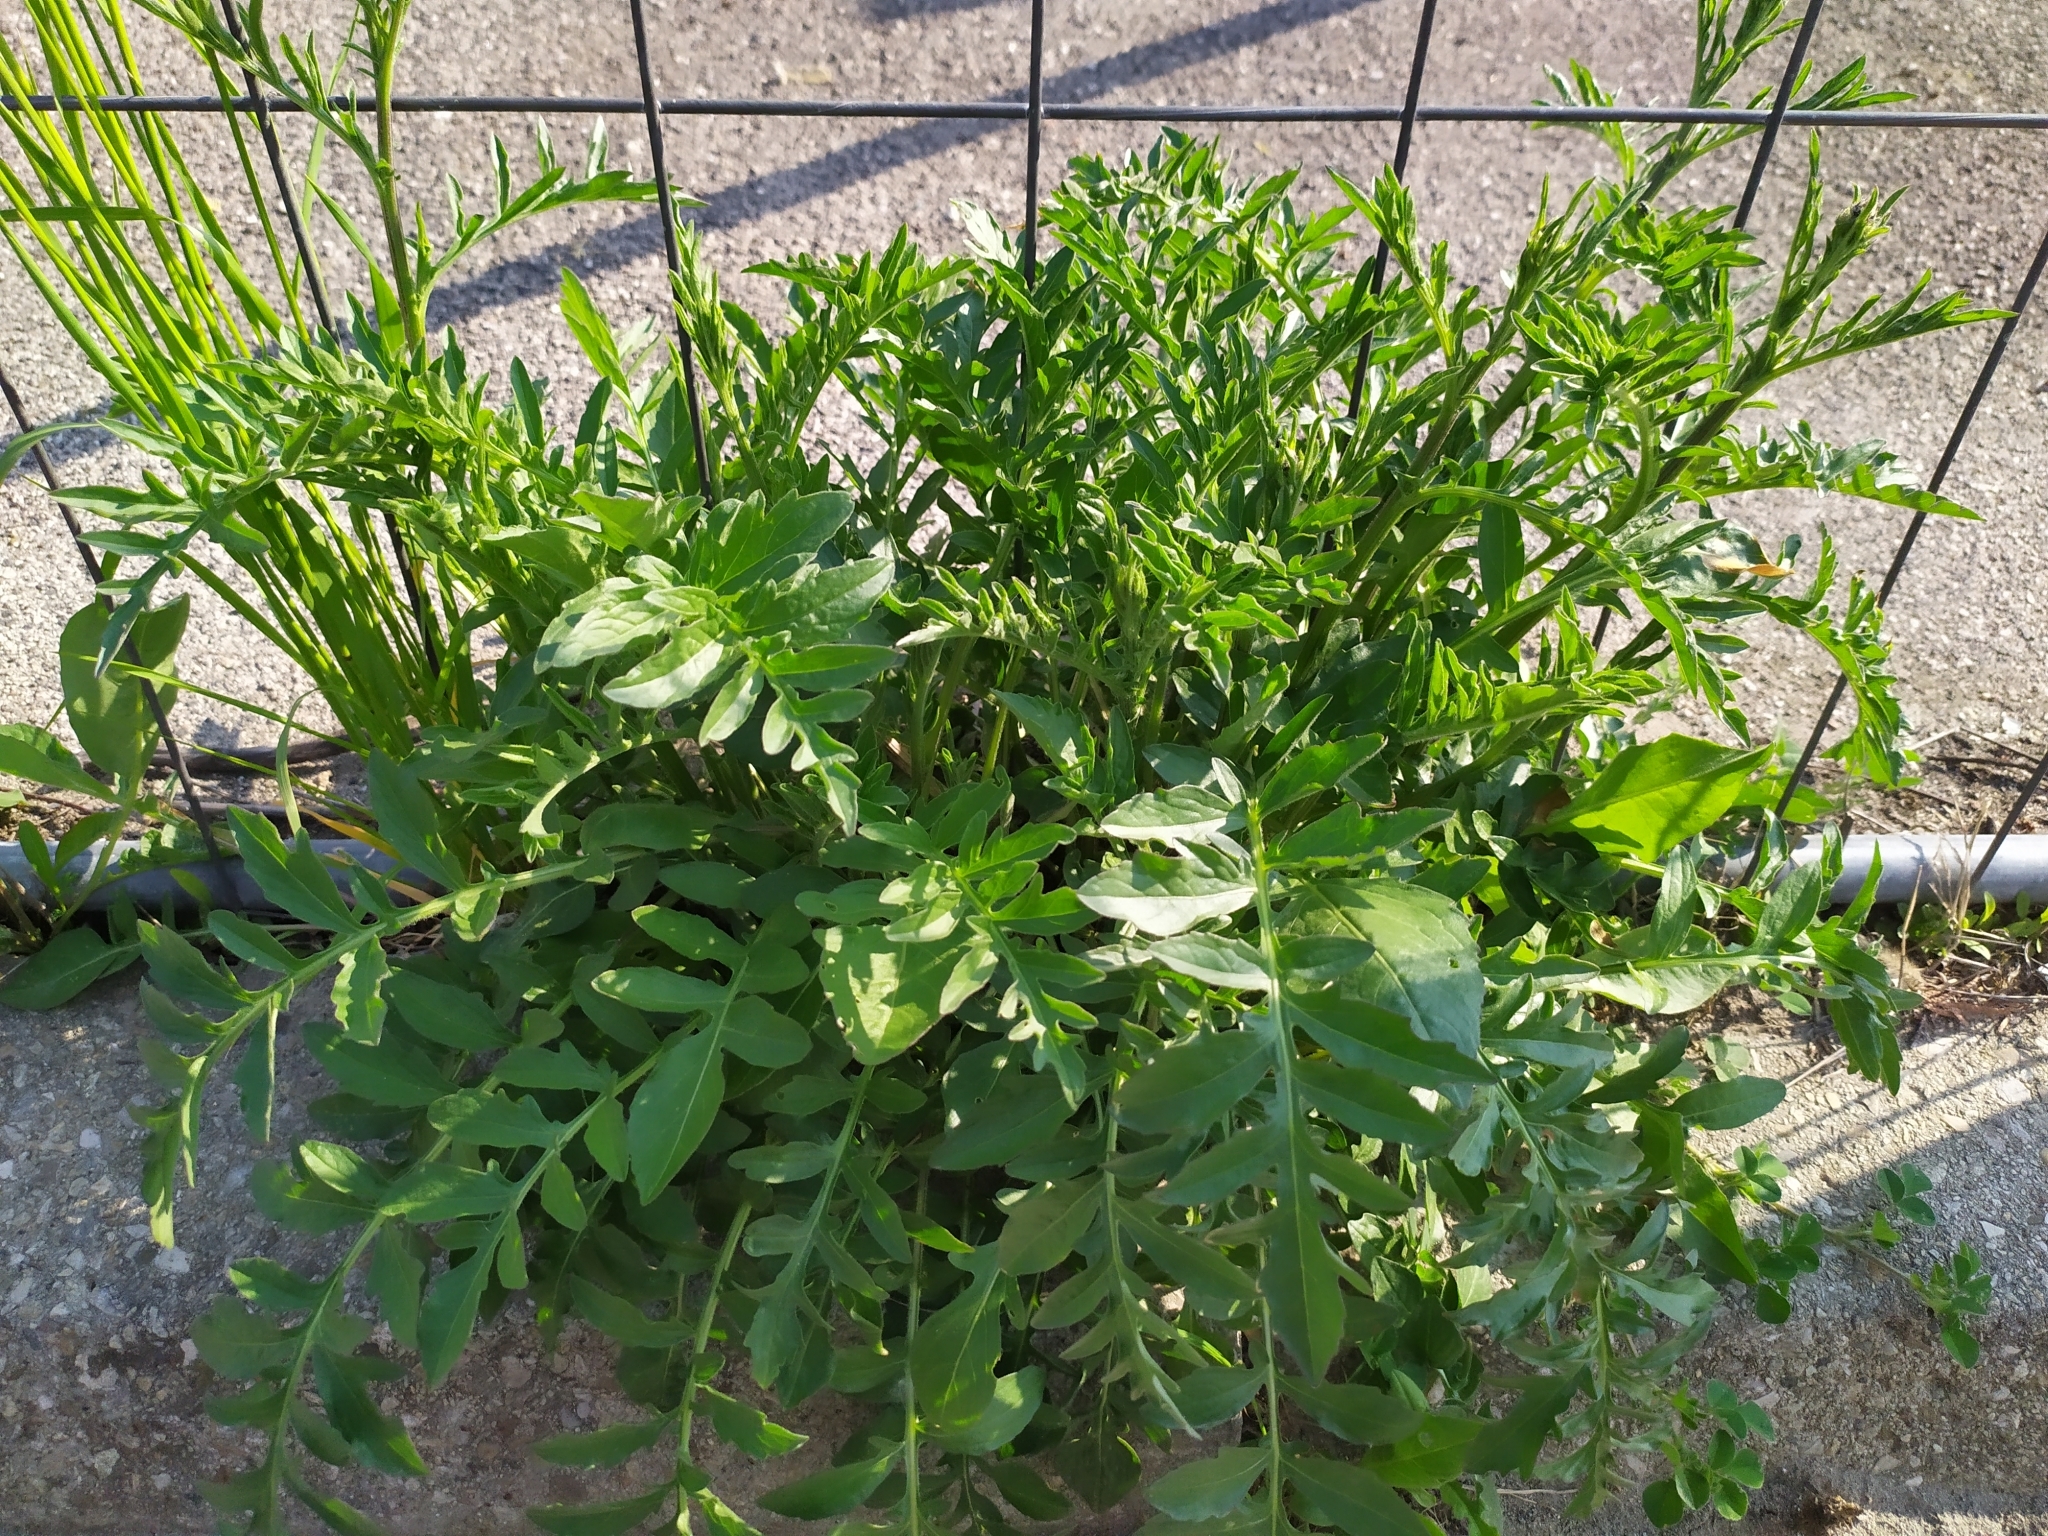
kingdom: Plantae
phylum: Tracheophyta
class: Magnoliopsida
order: Asterales
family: Asteraceae
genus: Centaurea
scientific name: Centaurea scabiosa
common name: Greater knapweed
